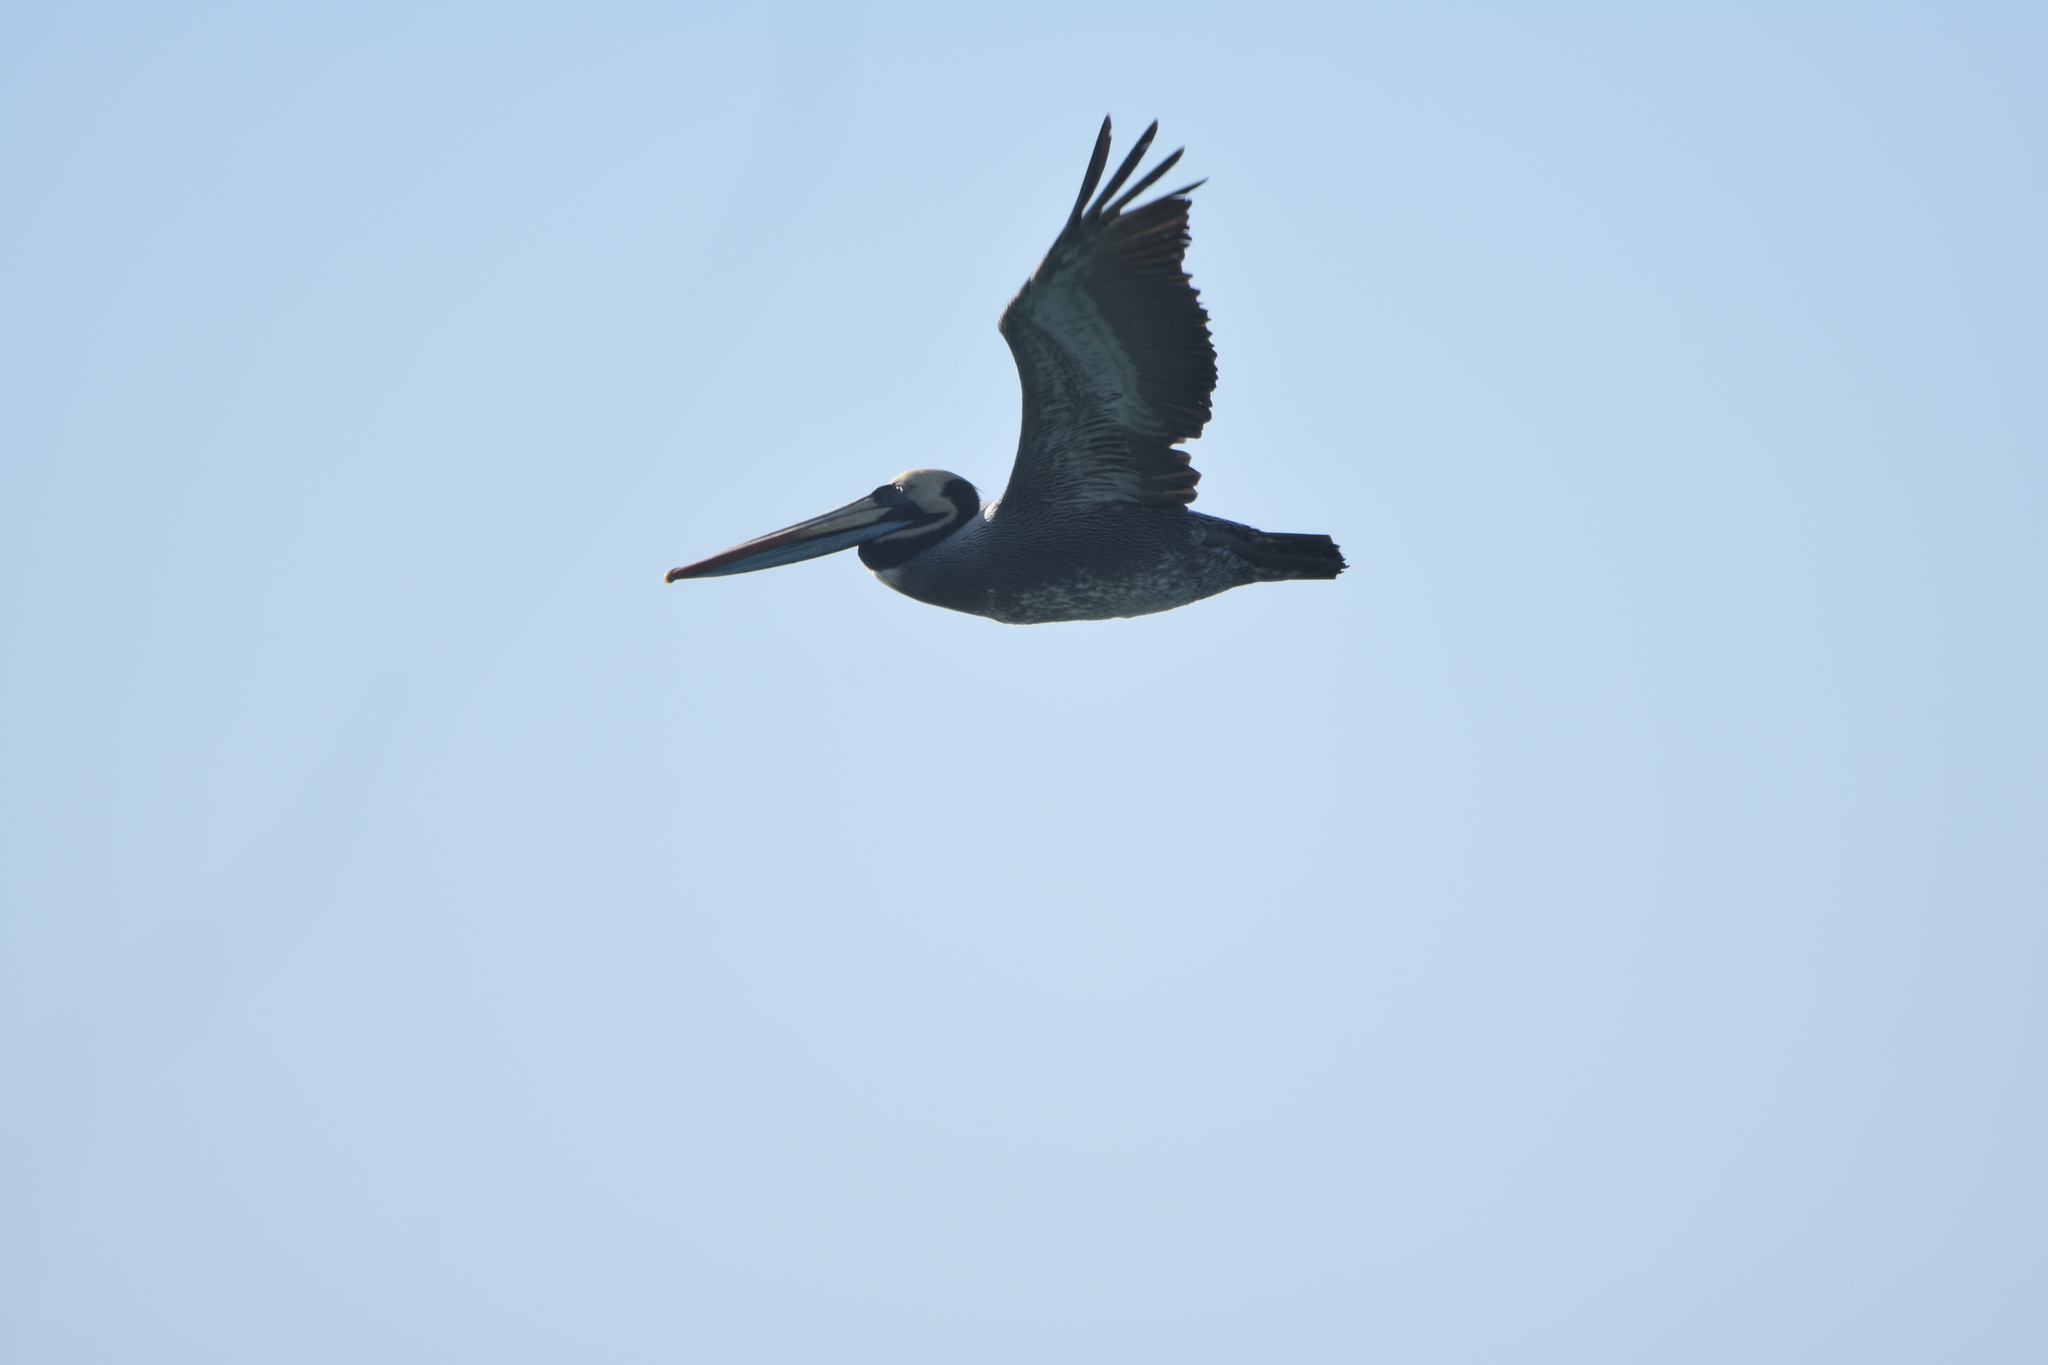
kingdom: Animalia
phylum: Chordata
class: Aves
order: Pelecaniformes
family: Pelecanidae
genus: Pelecanus
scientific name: Pelecanus thagus
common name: Peruvian pelican
